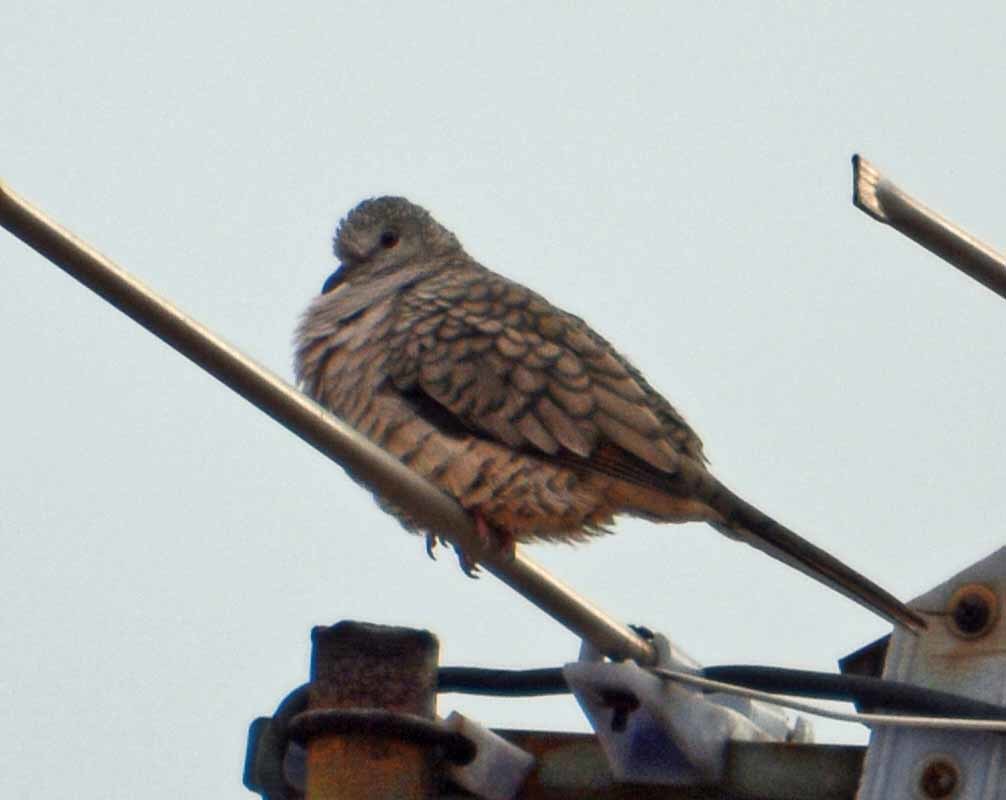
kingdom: Animalia
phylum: Chordata
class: Aves
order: Columbiformes
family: Columbidae
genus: Columbina
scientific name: Columbina inca
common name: Inca dove
